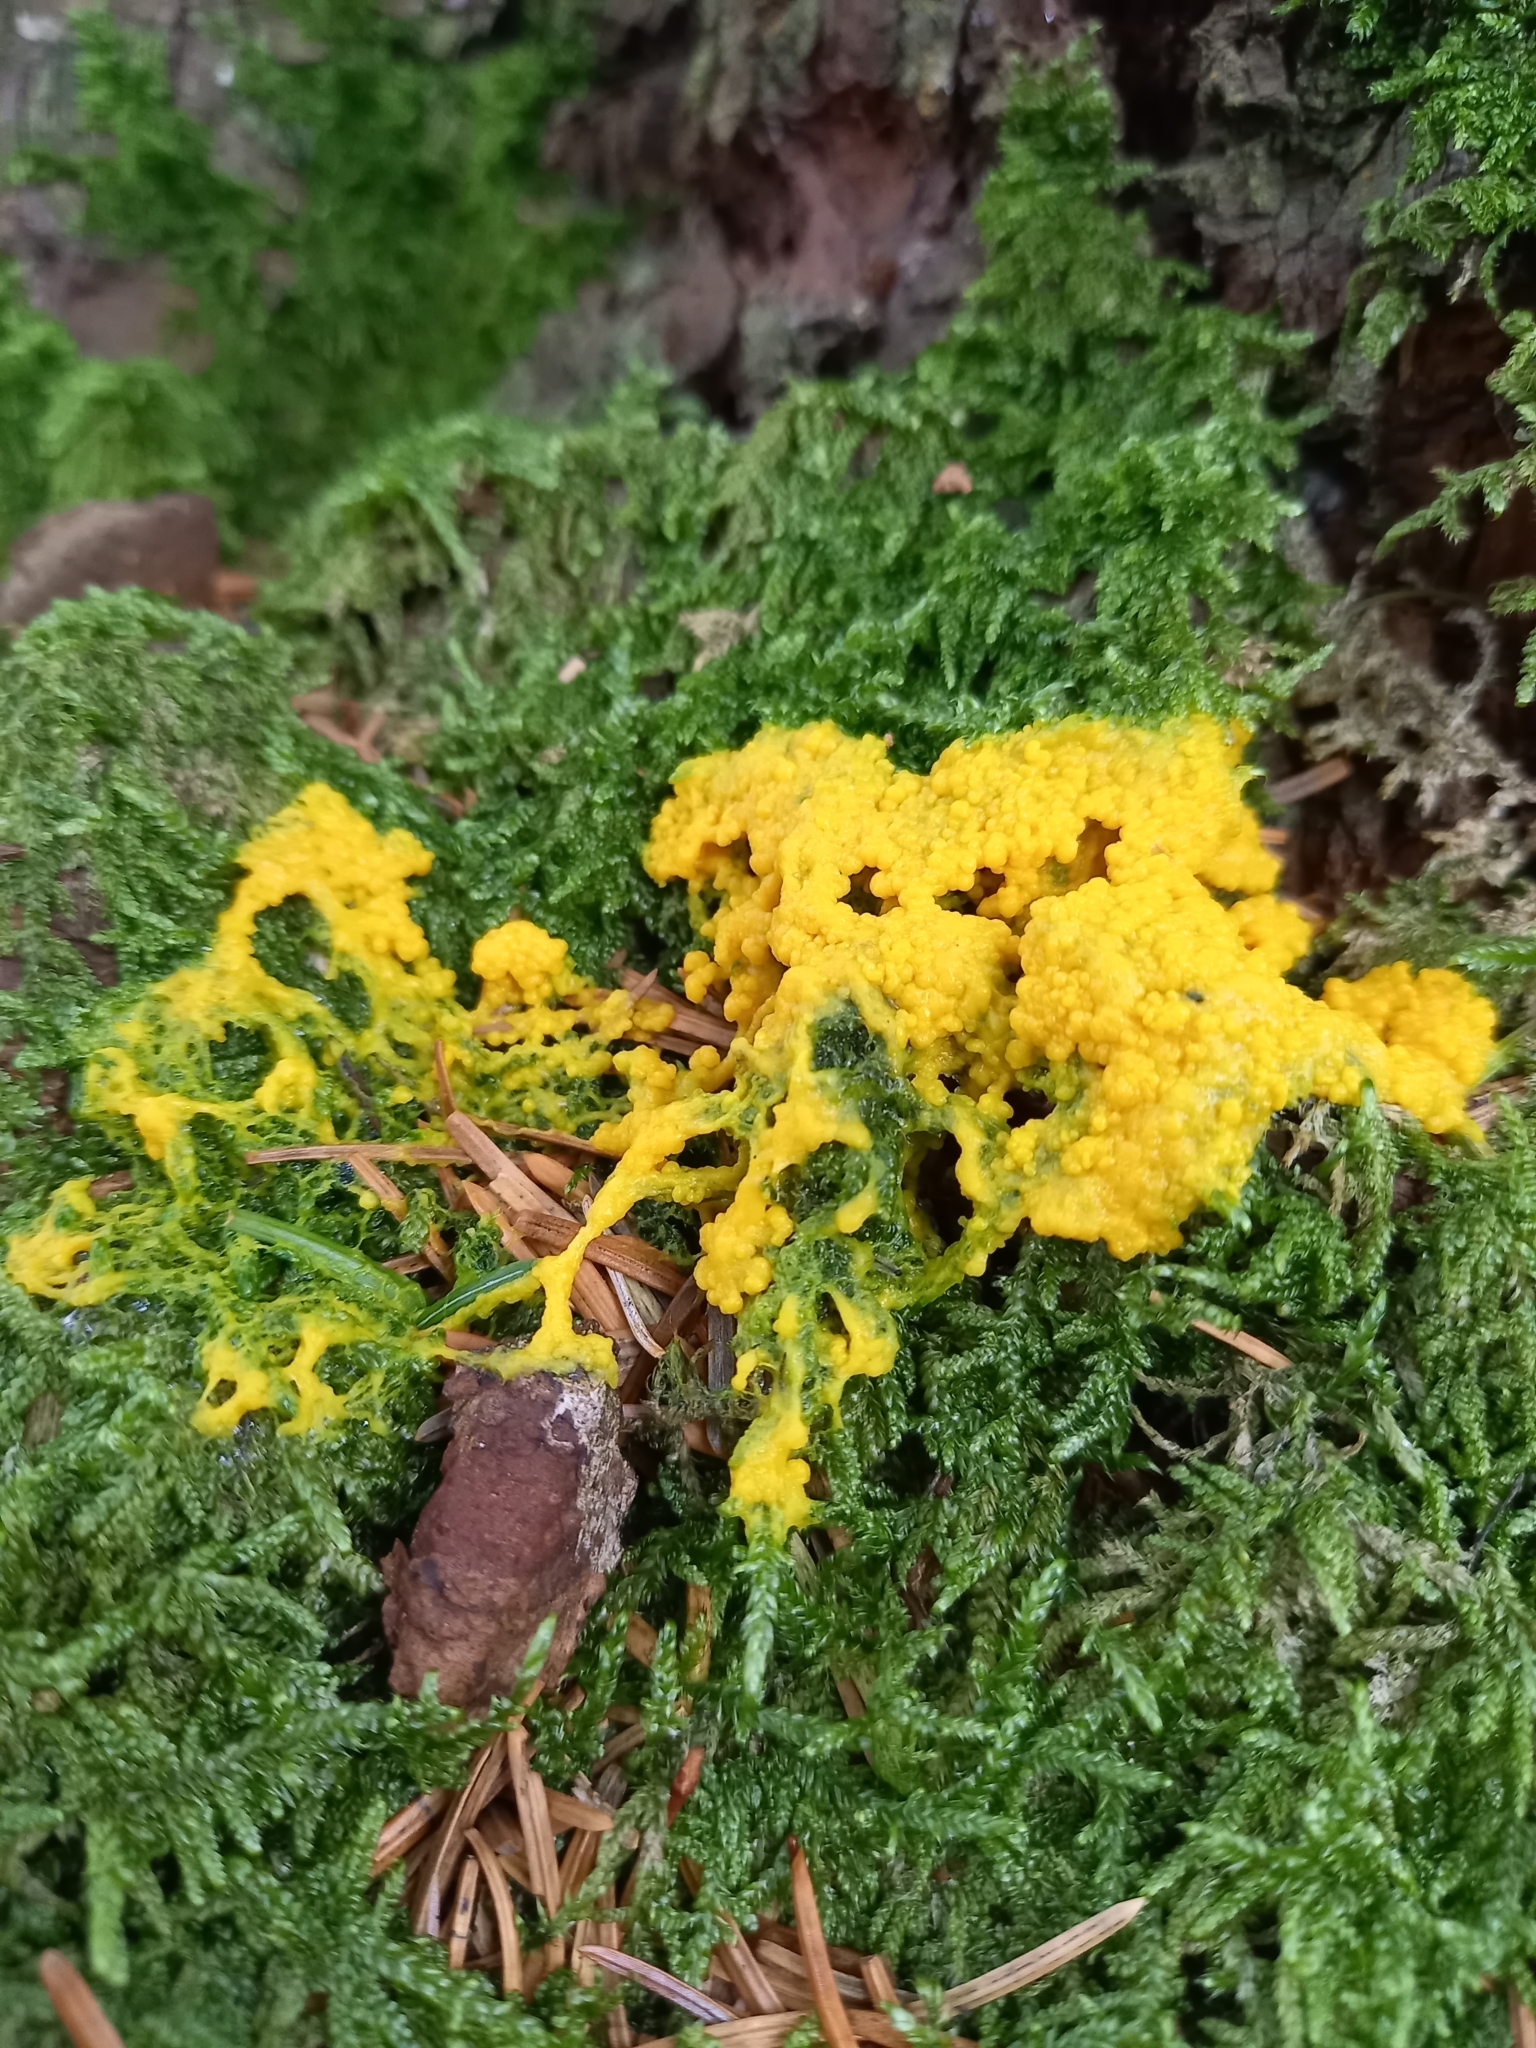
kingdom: Protozoa
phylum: Mycetozoa
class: Myxomycetes
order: Physarales
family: Physaraceae
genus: Fuligo
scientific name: Fuligo septica
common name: Dog vomit slime mold
